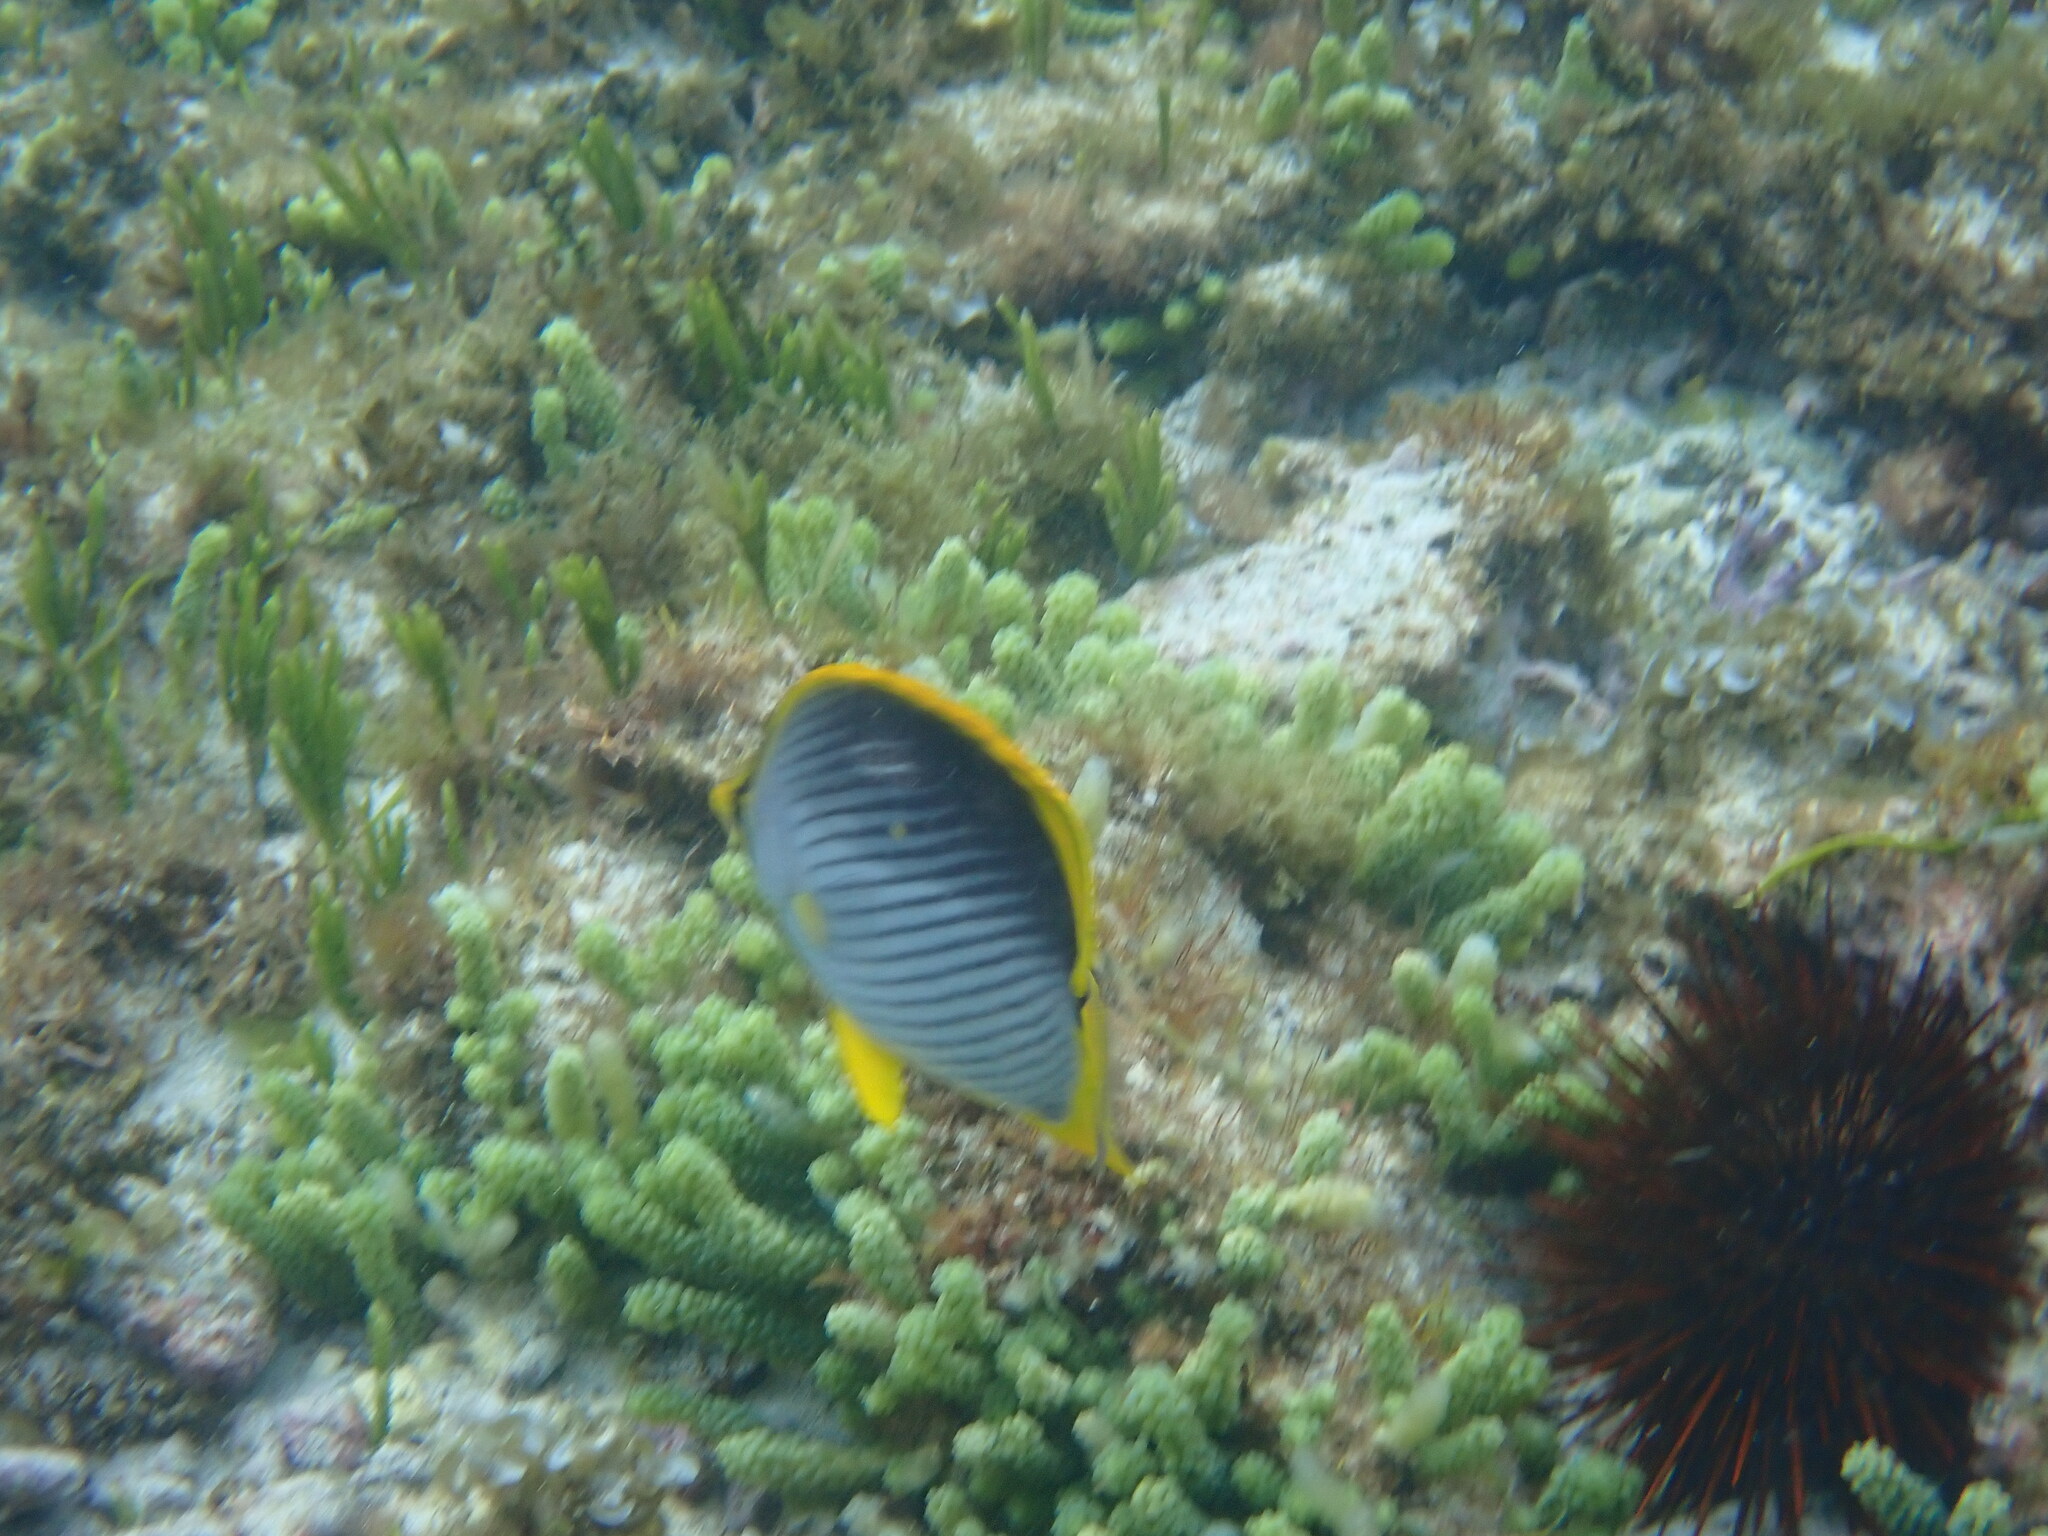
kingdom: Animalia
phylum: Chordata
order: Perciformes
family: Chaetodontidae
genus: Chaetodon
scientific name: Chaetodon melannotus
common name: Blackback butterflyfish
